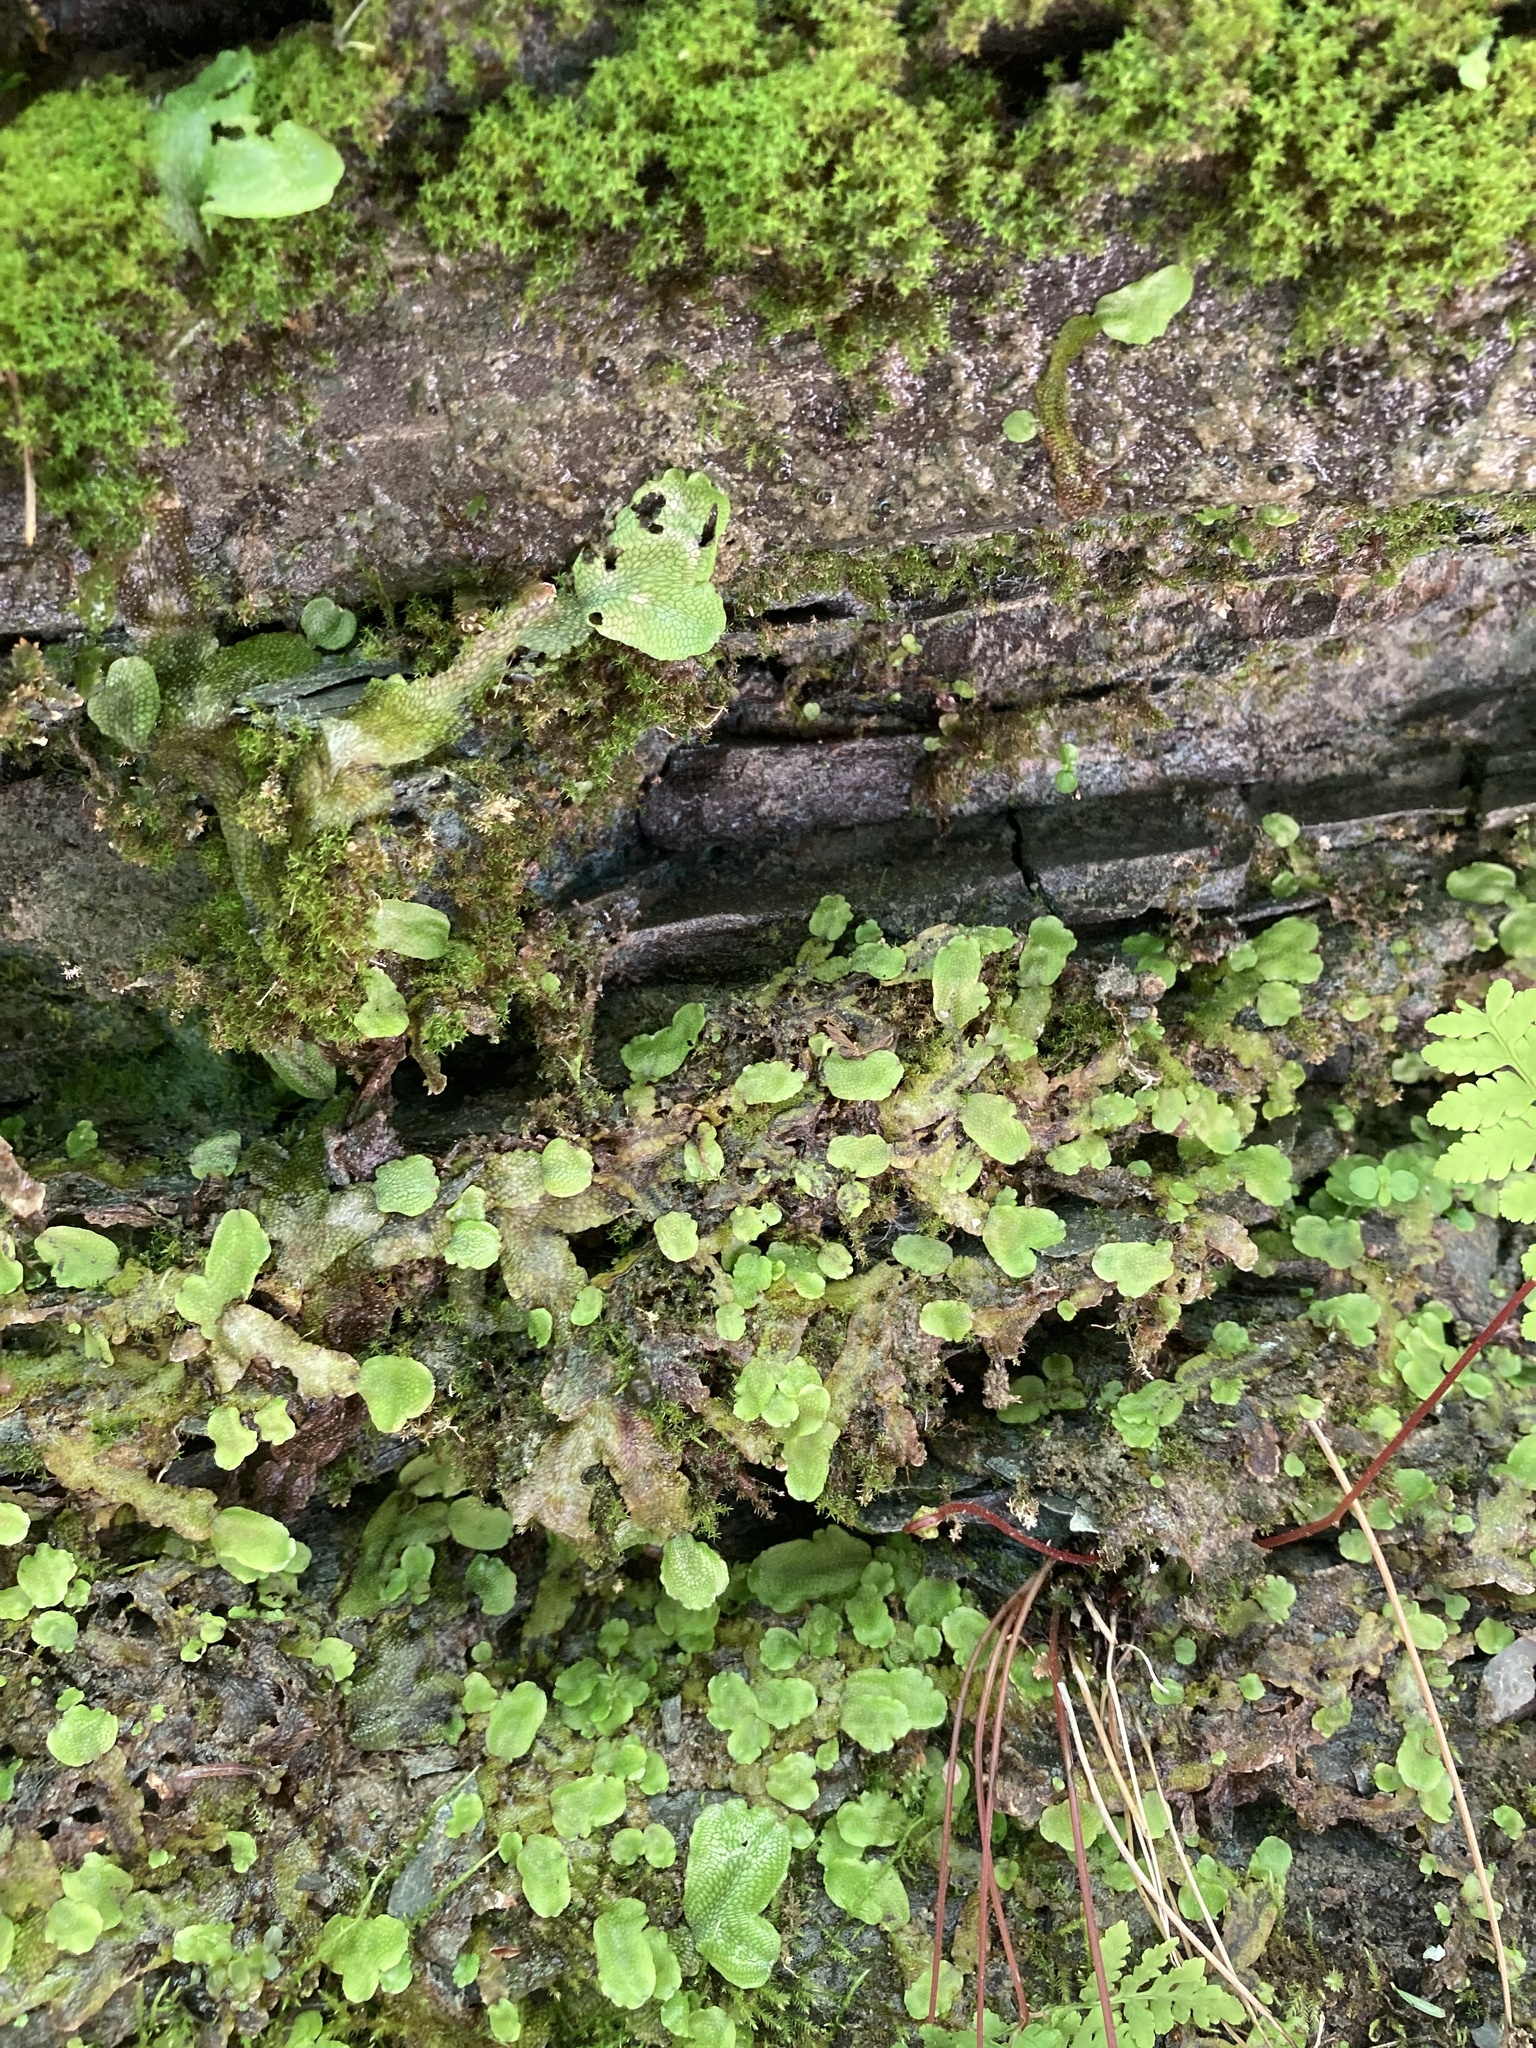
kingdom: Plantae
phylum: Marchantiophyta
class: Marchantiopsida
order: Marchantiales
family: Conocephalaceae
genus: Conocephalum
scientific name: Conocephalum salebrosum
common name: Cat-tongue liverwort
